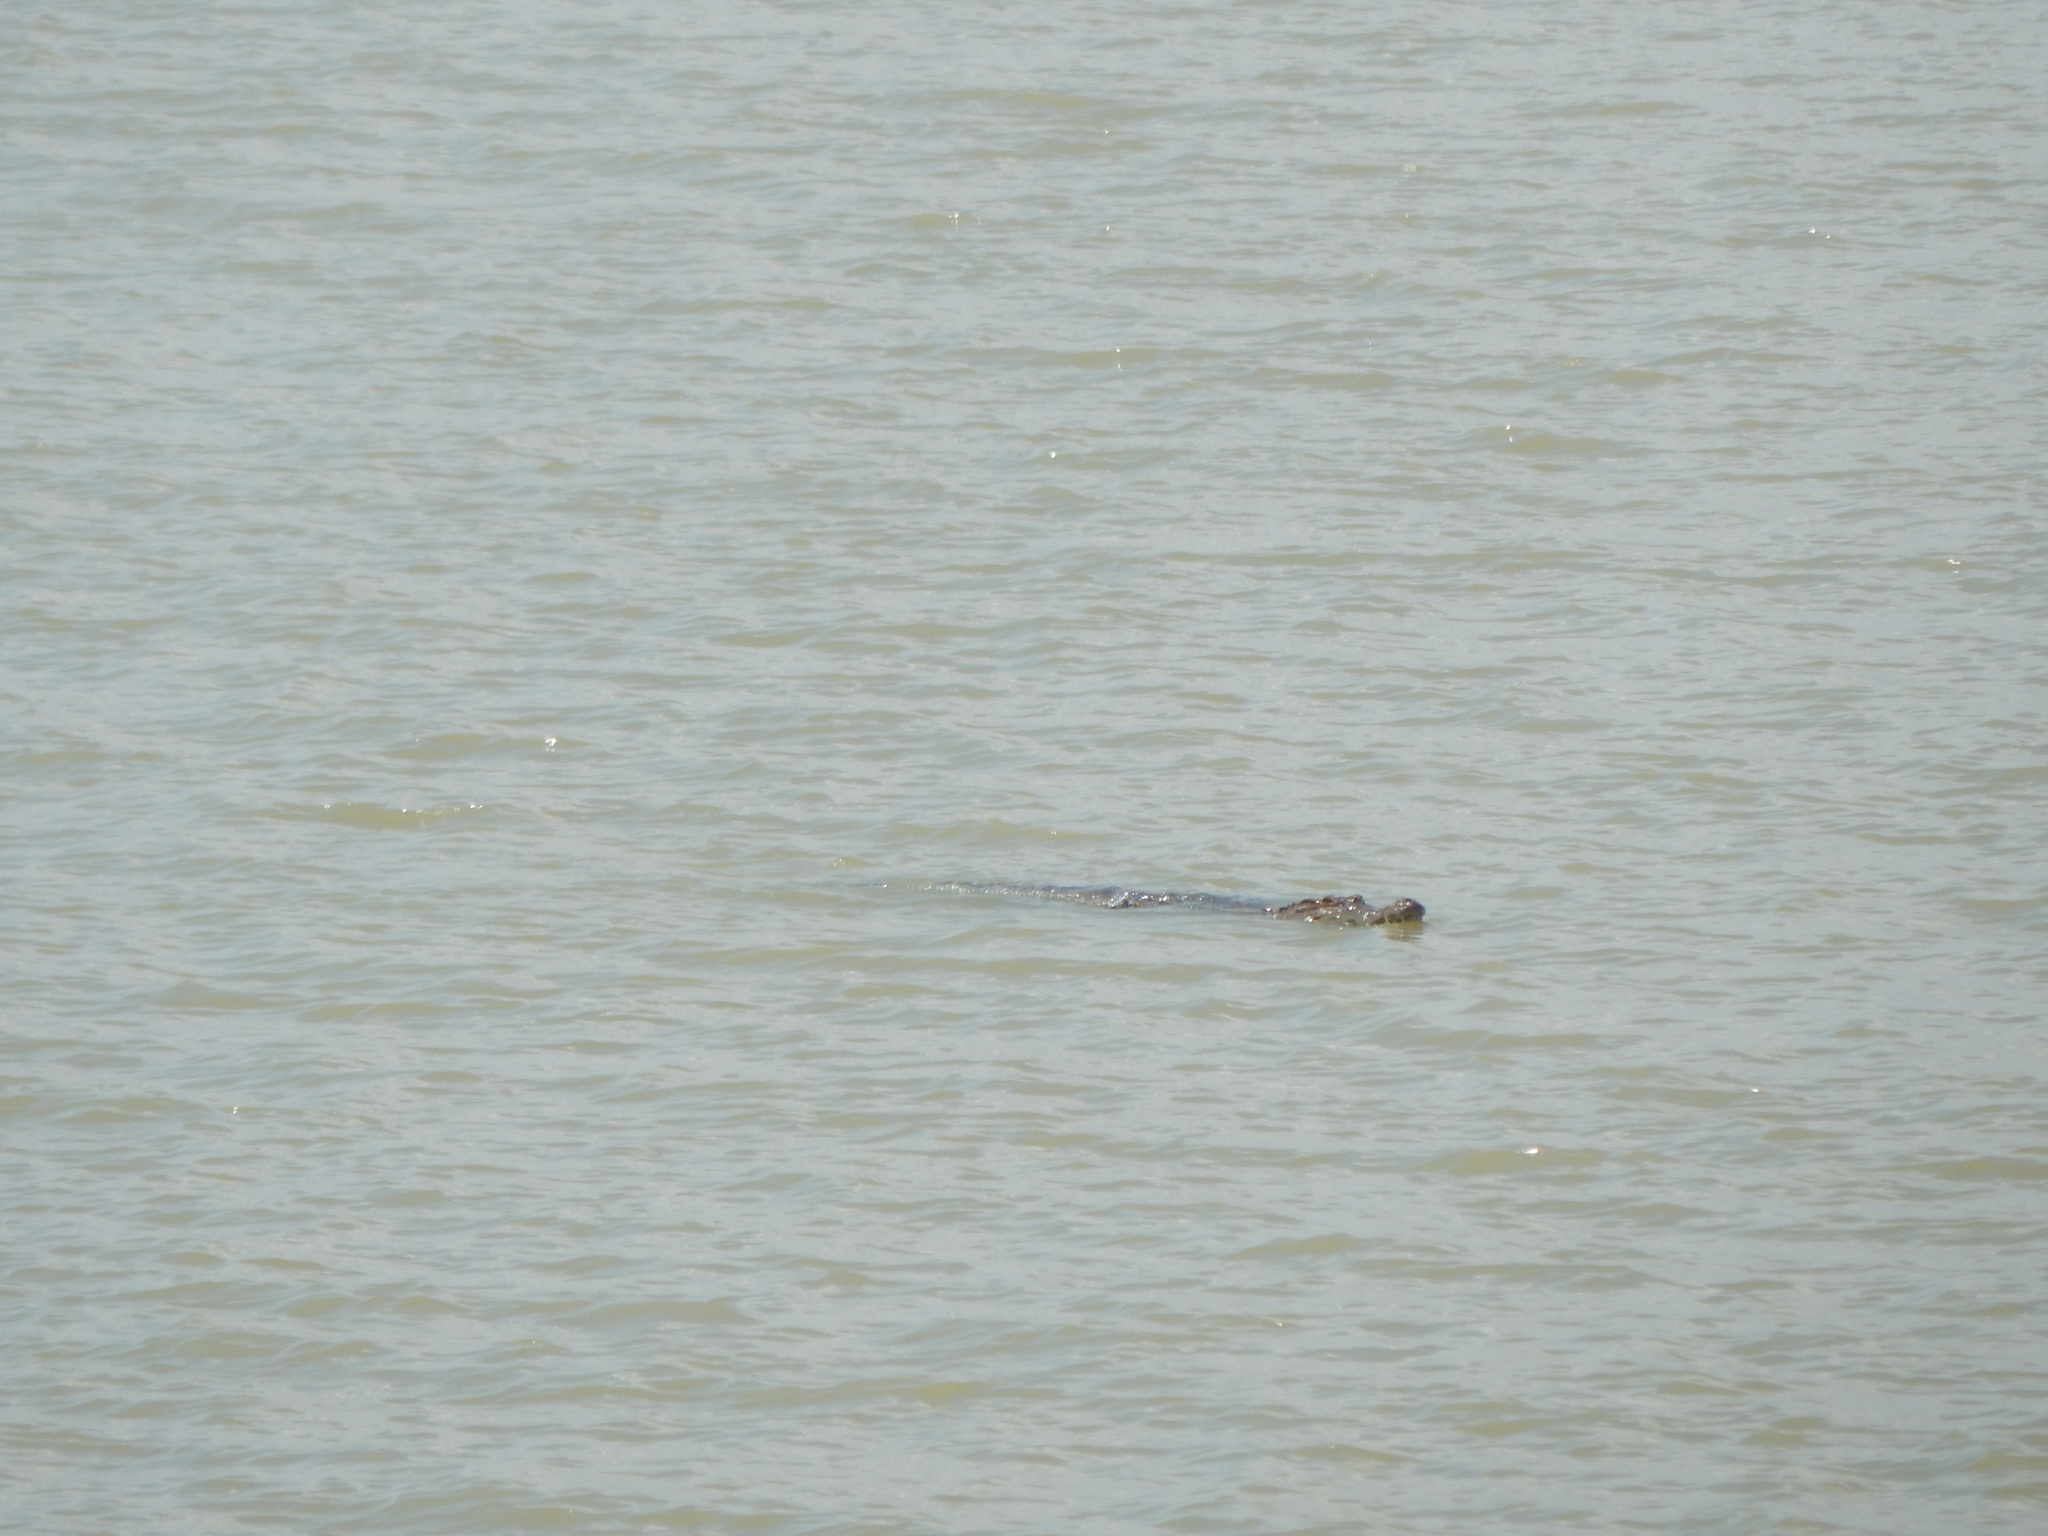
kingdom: Animalia
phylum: Chordata
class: Crocodylia
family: Crocodylidae
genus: Crocodylus
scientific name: Crocodylus niloticus
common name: Nile crocodile
